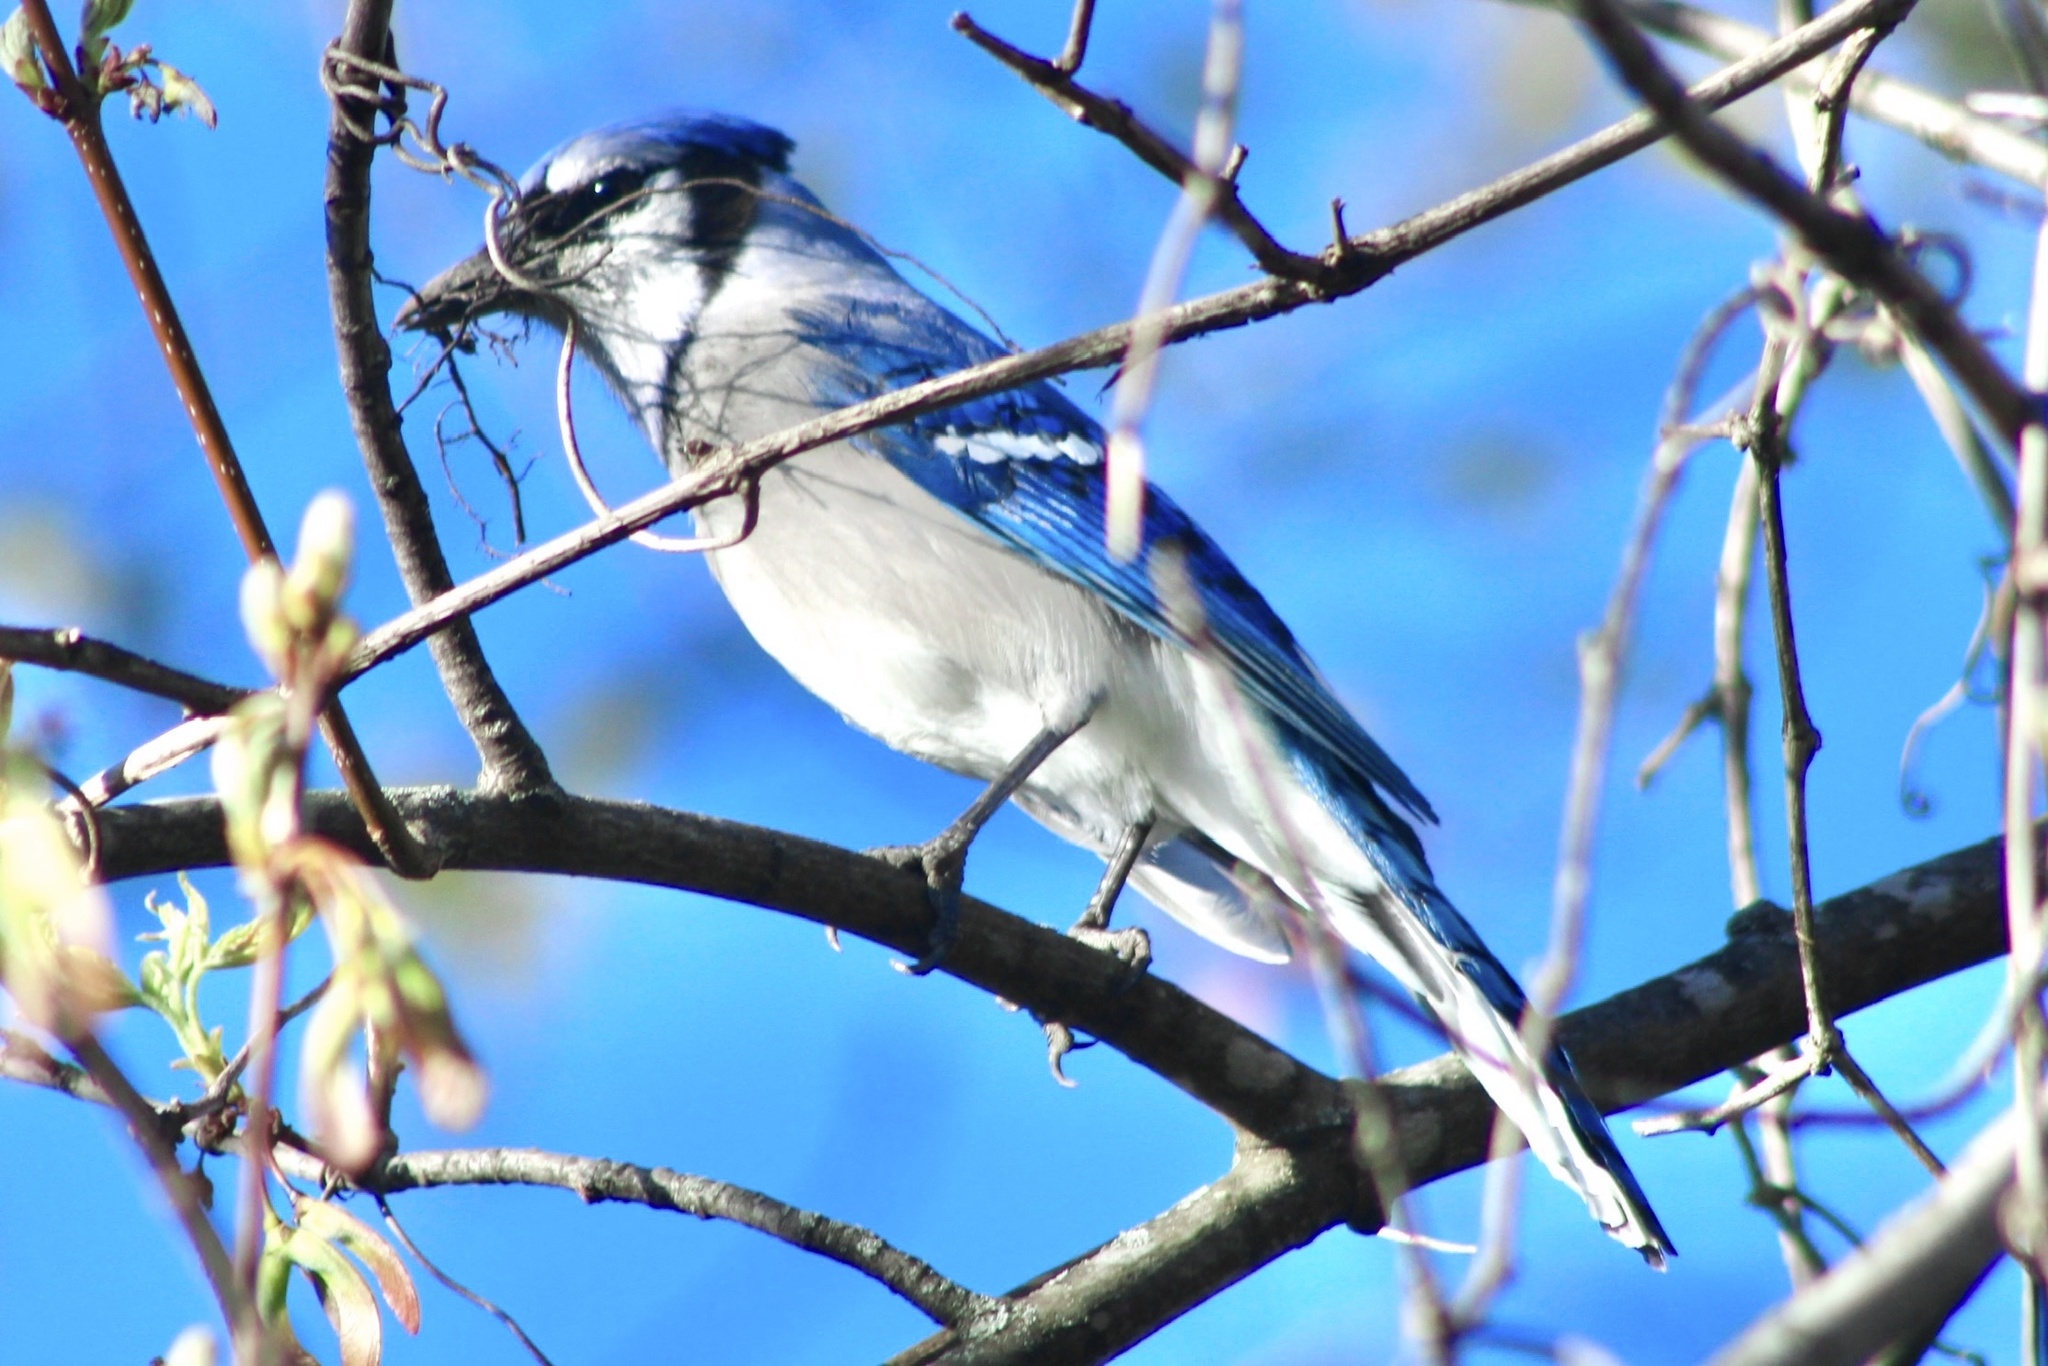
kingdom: Animalia
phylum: Chordata
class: Aves
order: Passeriformes
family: Corvidae
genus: Cyanocitta
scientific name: Cyanocitta cristata
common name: Blue jay
